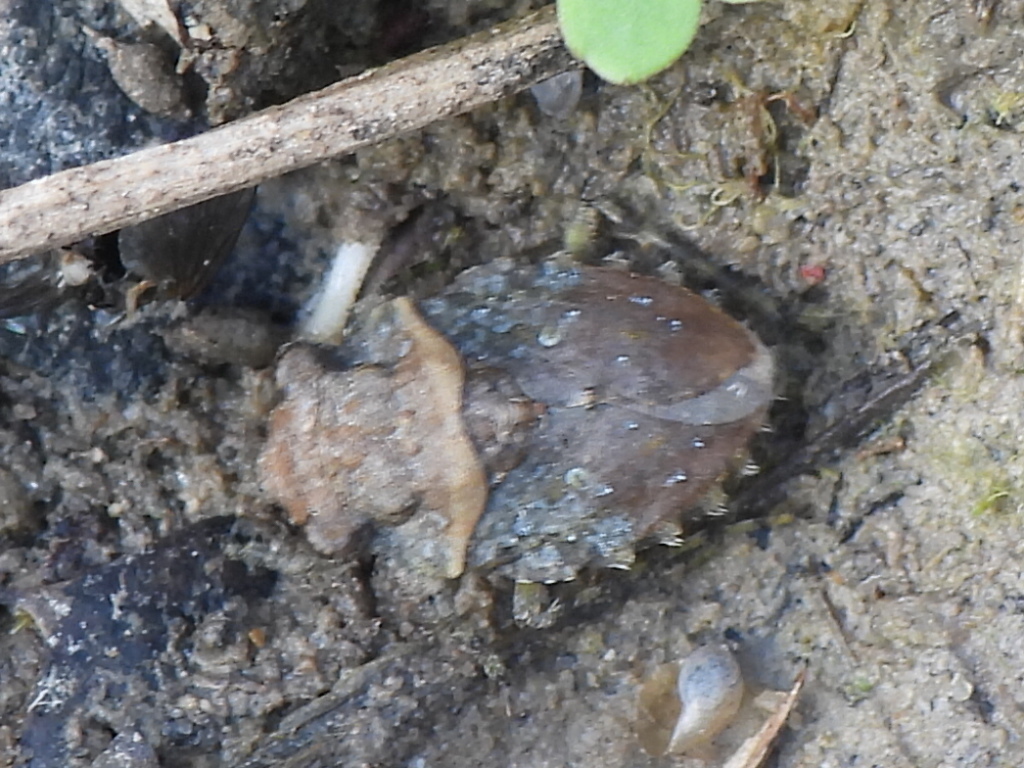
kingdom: Animalia
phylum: Arthropoda
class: Insecta
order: Hemiptera
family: Gelastocoridae
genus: Gelastocoris
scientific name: Gelastocoris oculatus
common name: Toad bug
